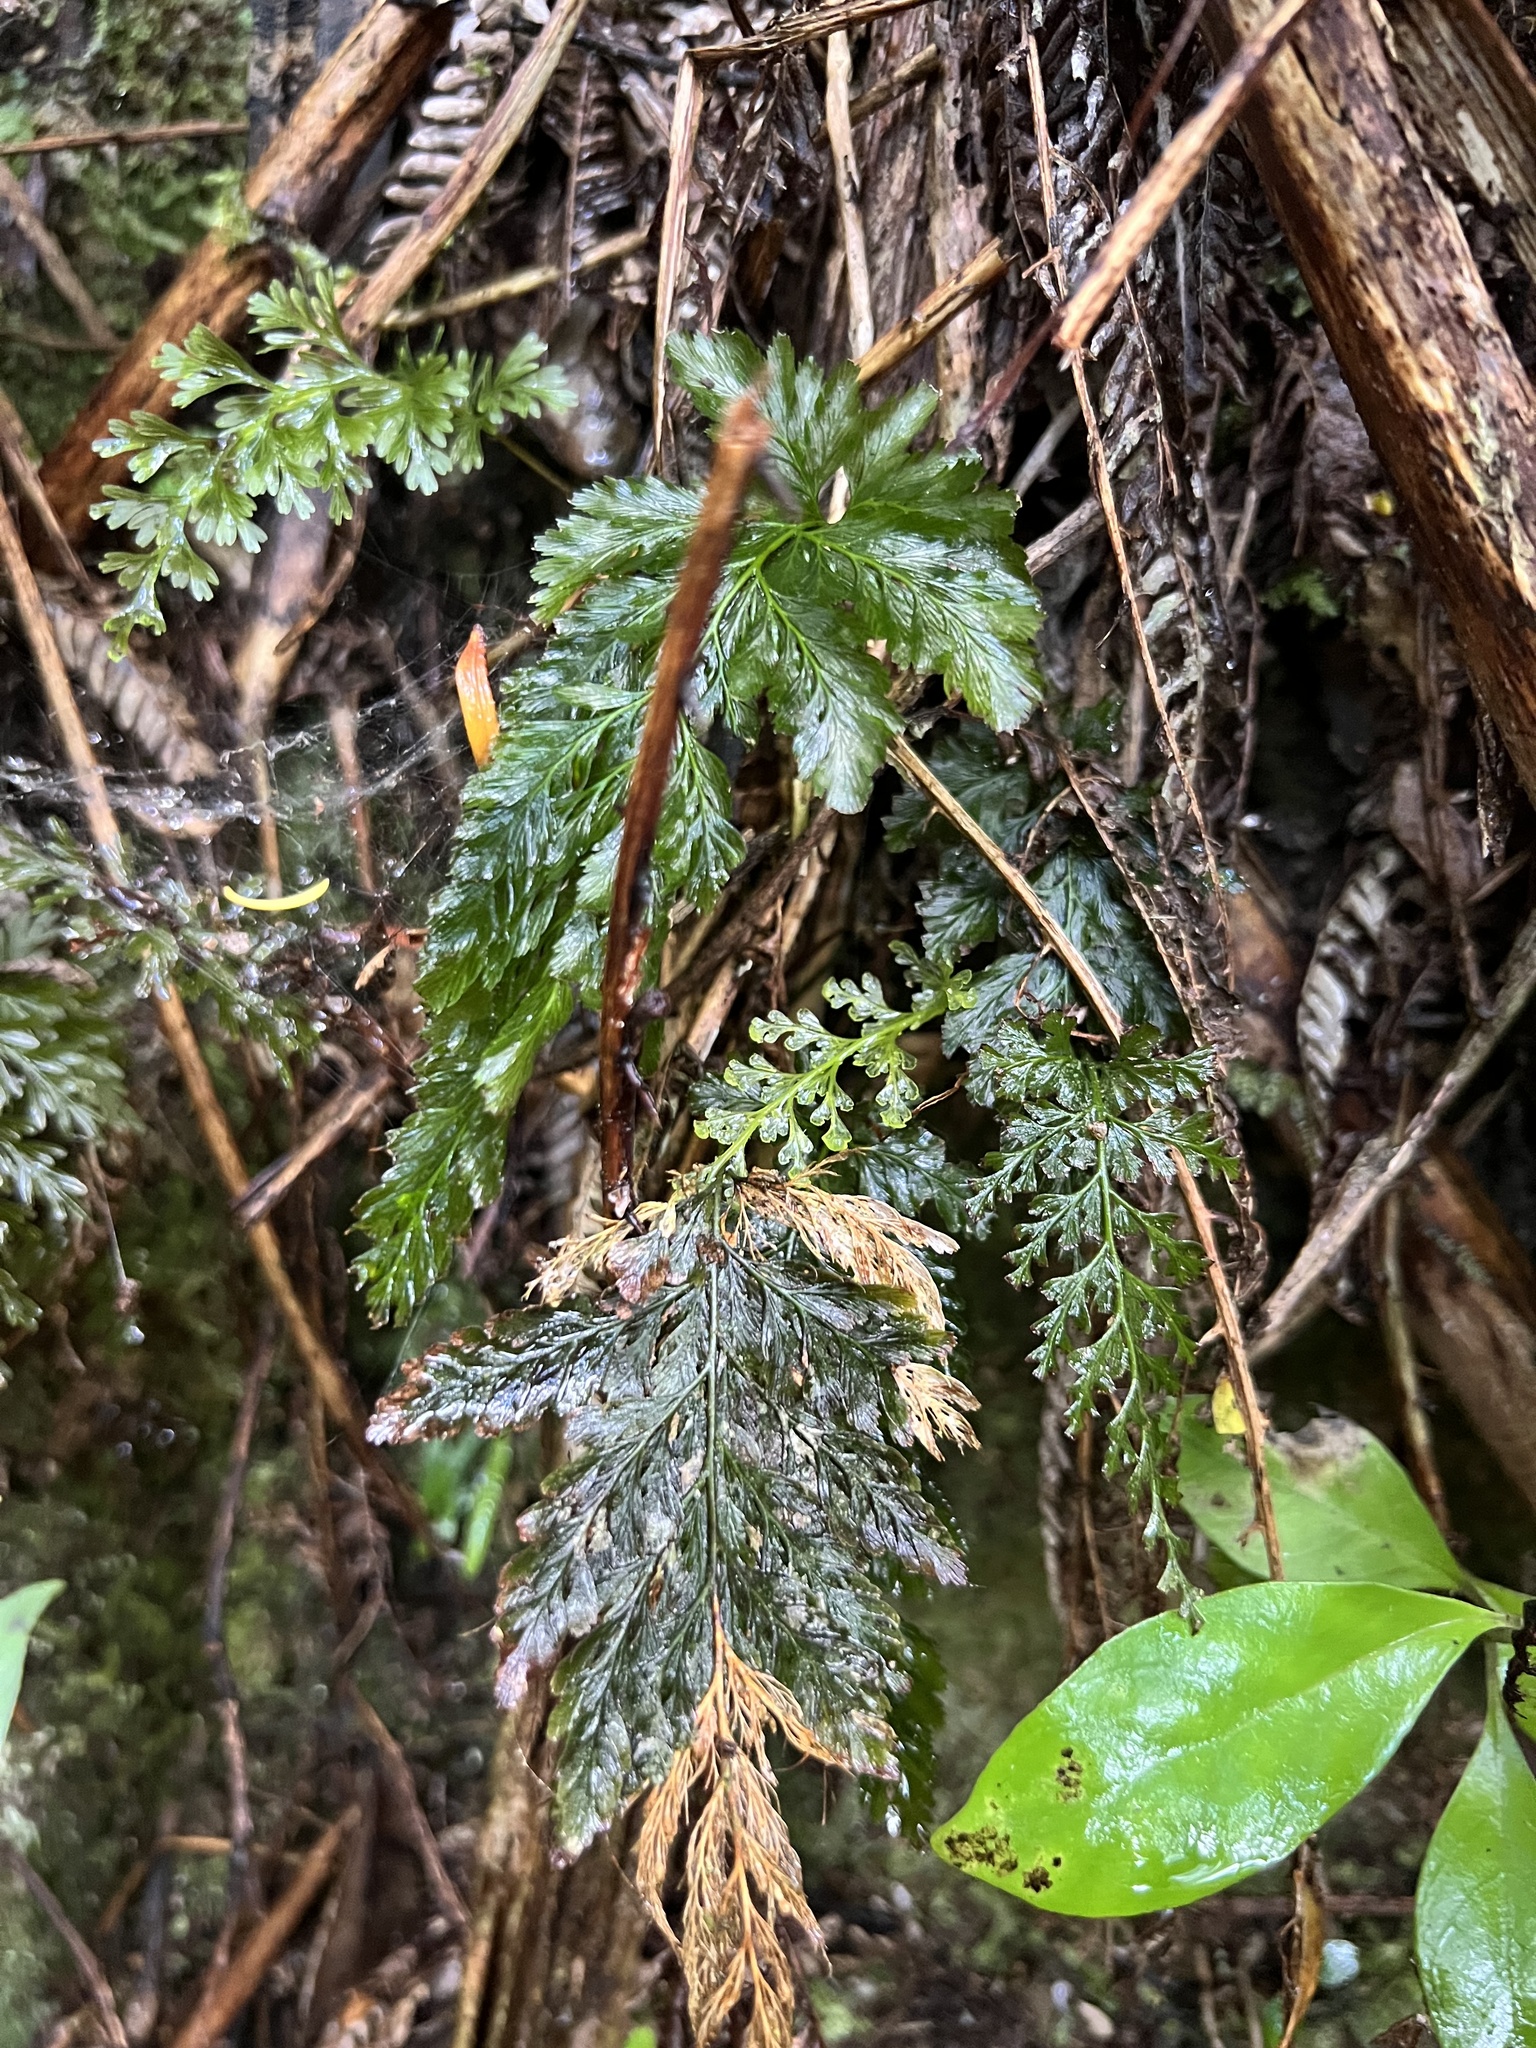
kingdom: Plantae
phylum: Tracheophyta
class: Polypodiopsida
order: Hymenophyllales
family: Hymenophyllaceae
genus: Abrodictyum
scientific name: Abrodictyum elongatum
